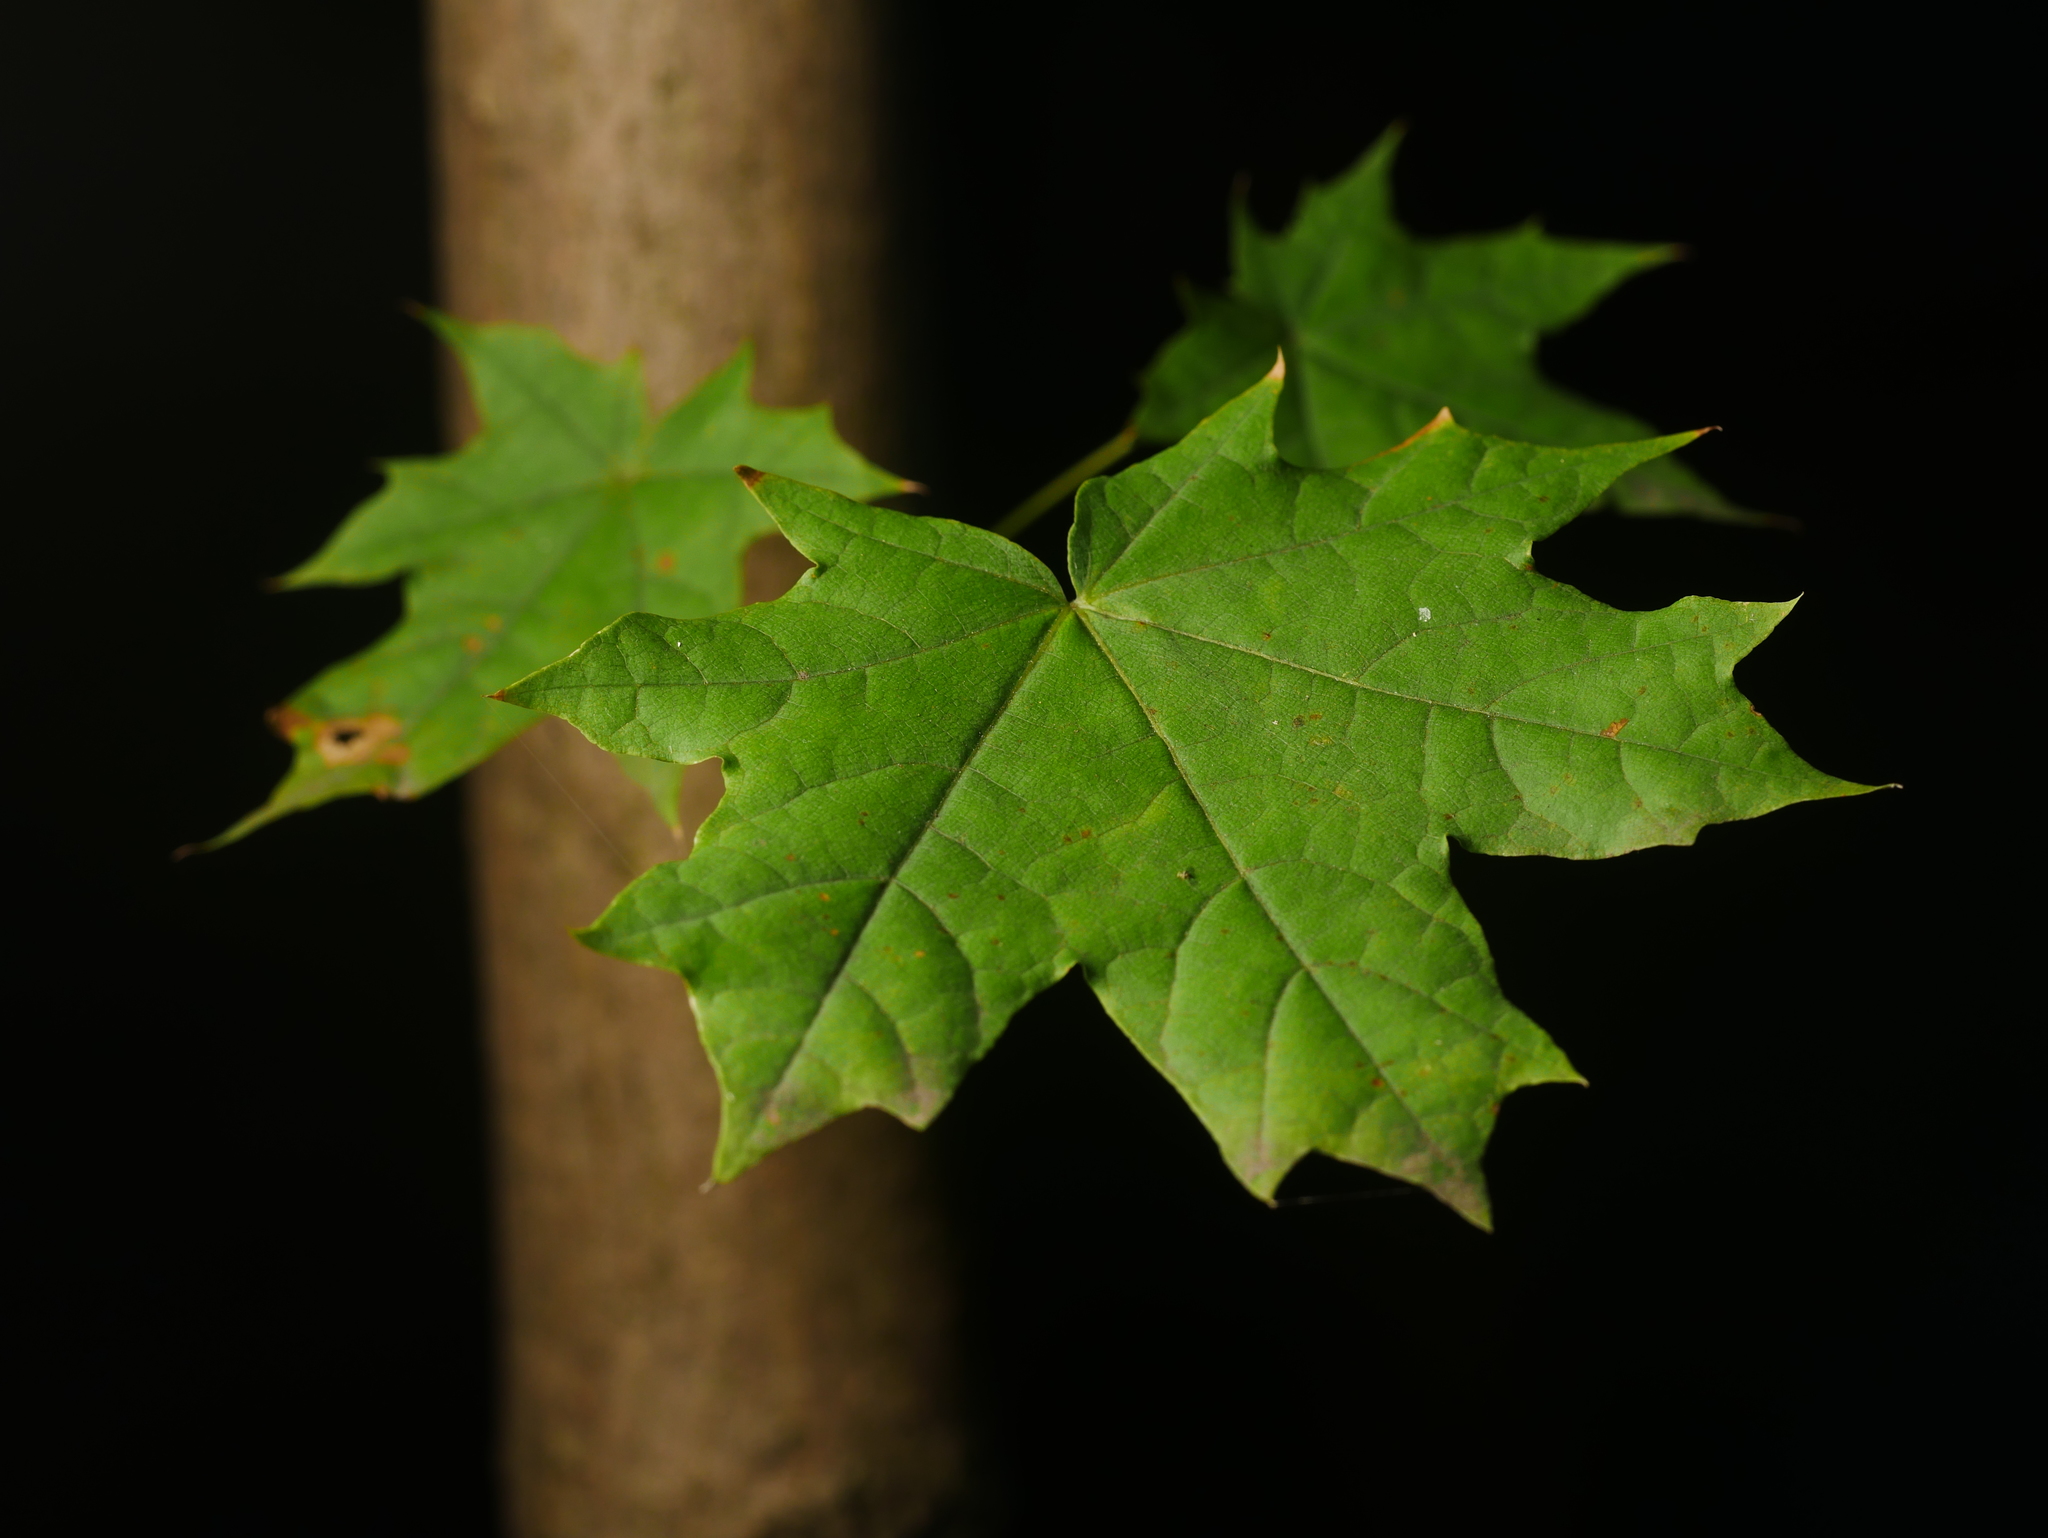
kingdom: Plantae
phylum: Tracheophyta
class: Magnoliopsida
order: Sapindales
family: Sapindaceae
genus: Acer
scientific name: Acer platanoides
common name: Norway maple
